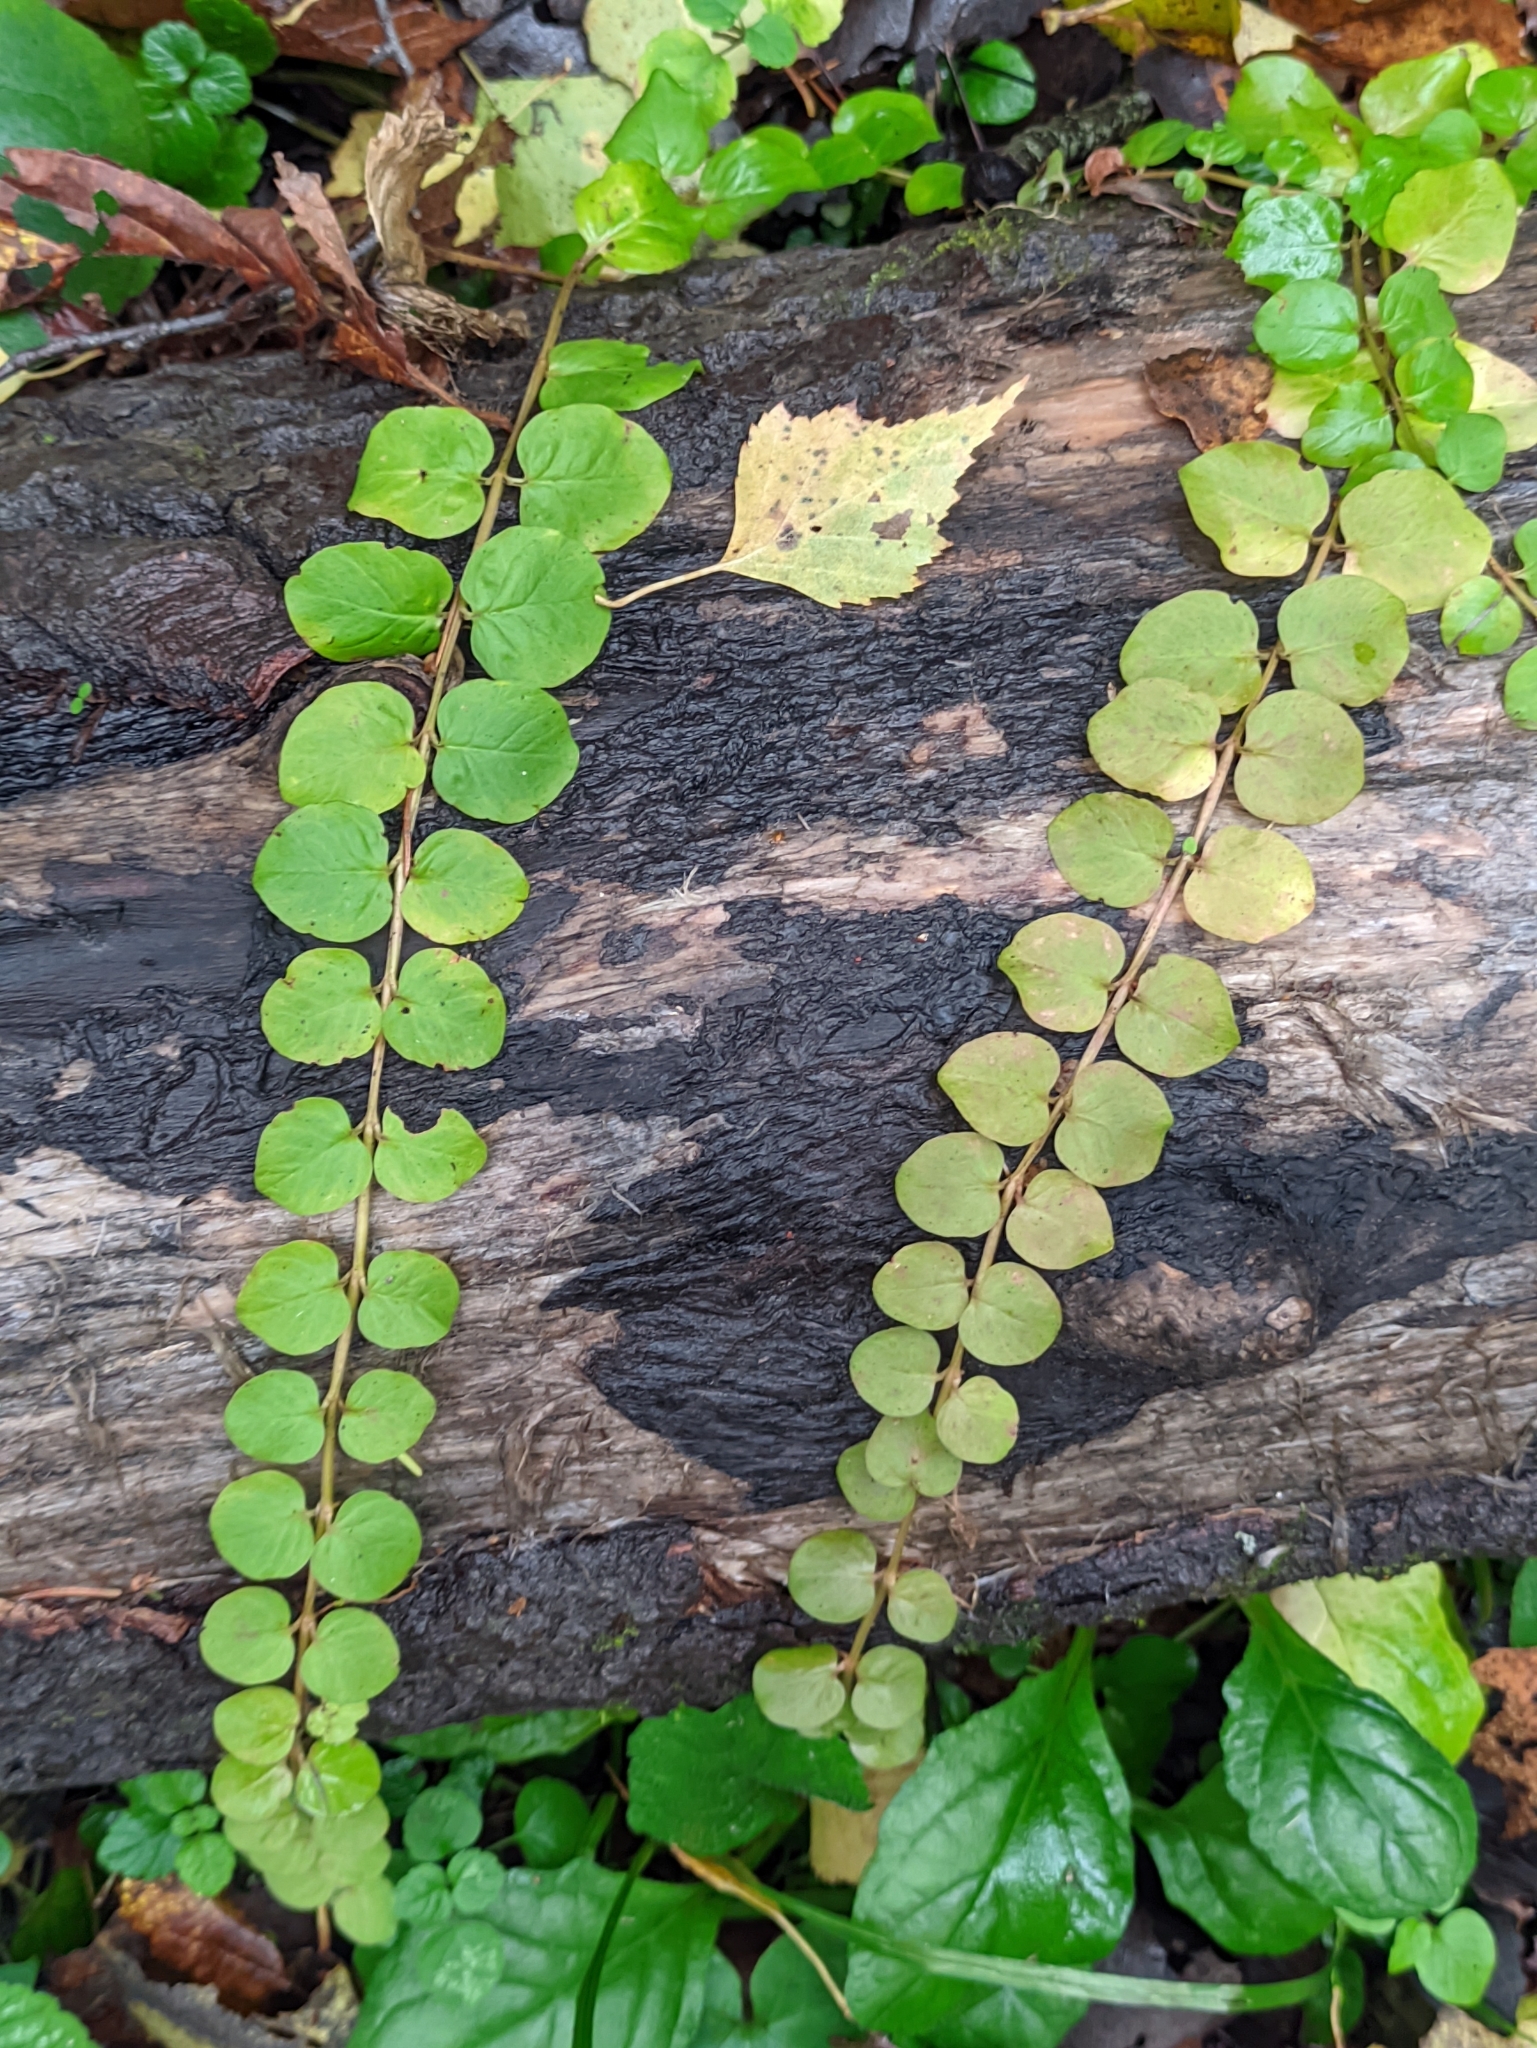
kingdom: Plantae
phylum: Tracheophyta
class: Magnoliopsida
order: Ericales
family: Primulaceae
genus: Lysimachia
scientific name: Lysimachia nummularia
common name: Moneywort
